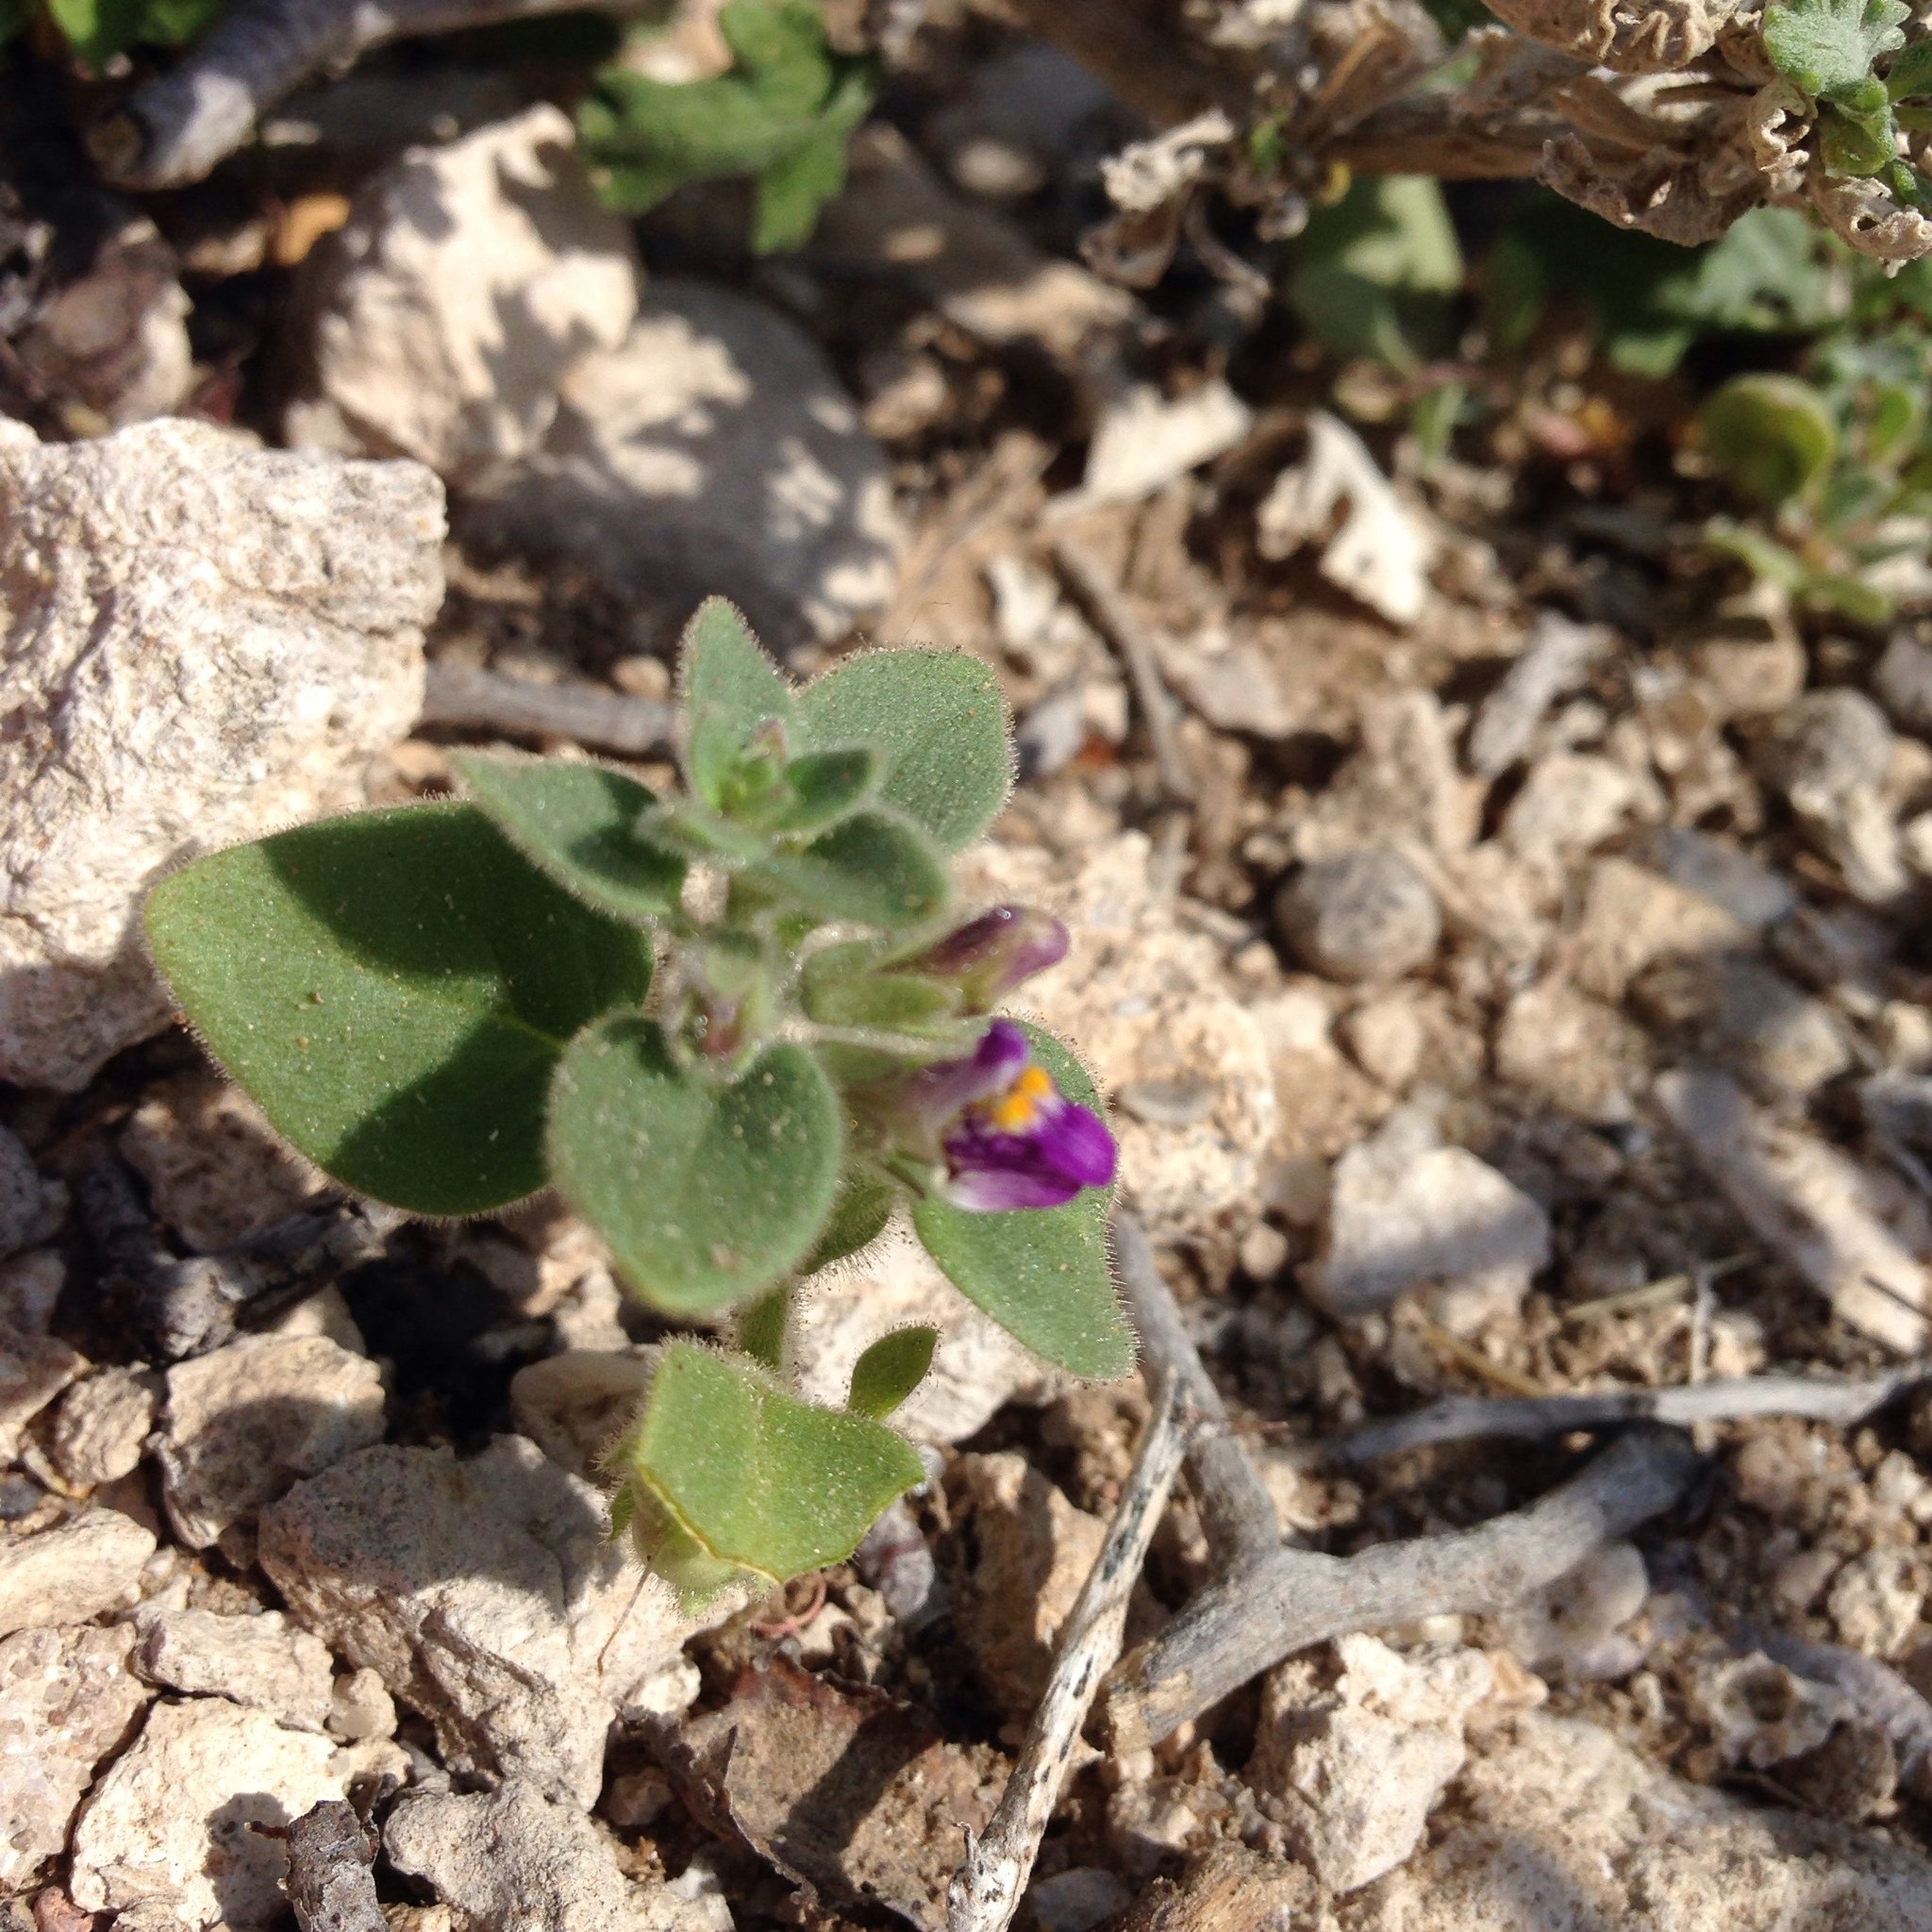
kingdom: Plantae
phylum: Tracheophyta
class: Magnoliopsida
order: Lamiales
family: Plantaginaceae
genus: Pseudorontium
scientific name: Pseudorontium cyathiferum
